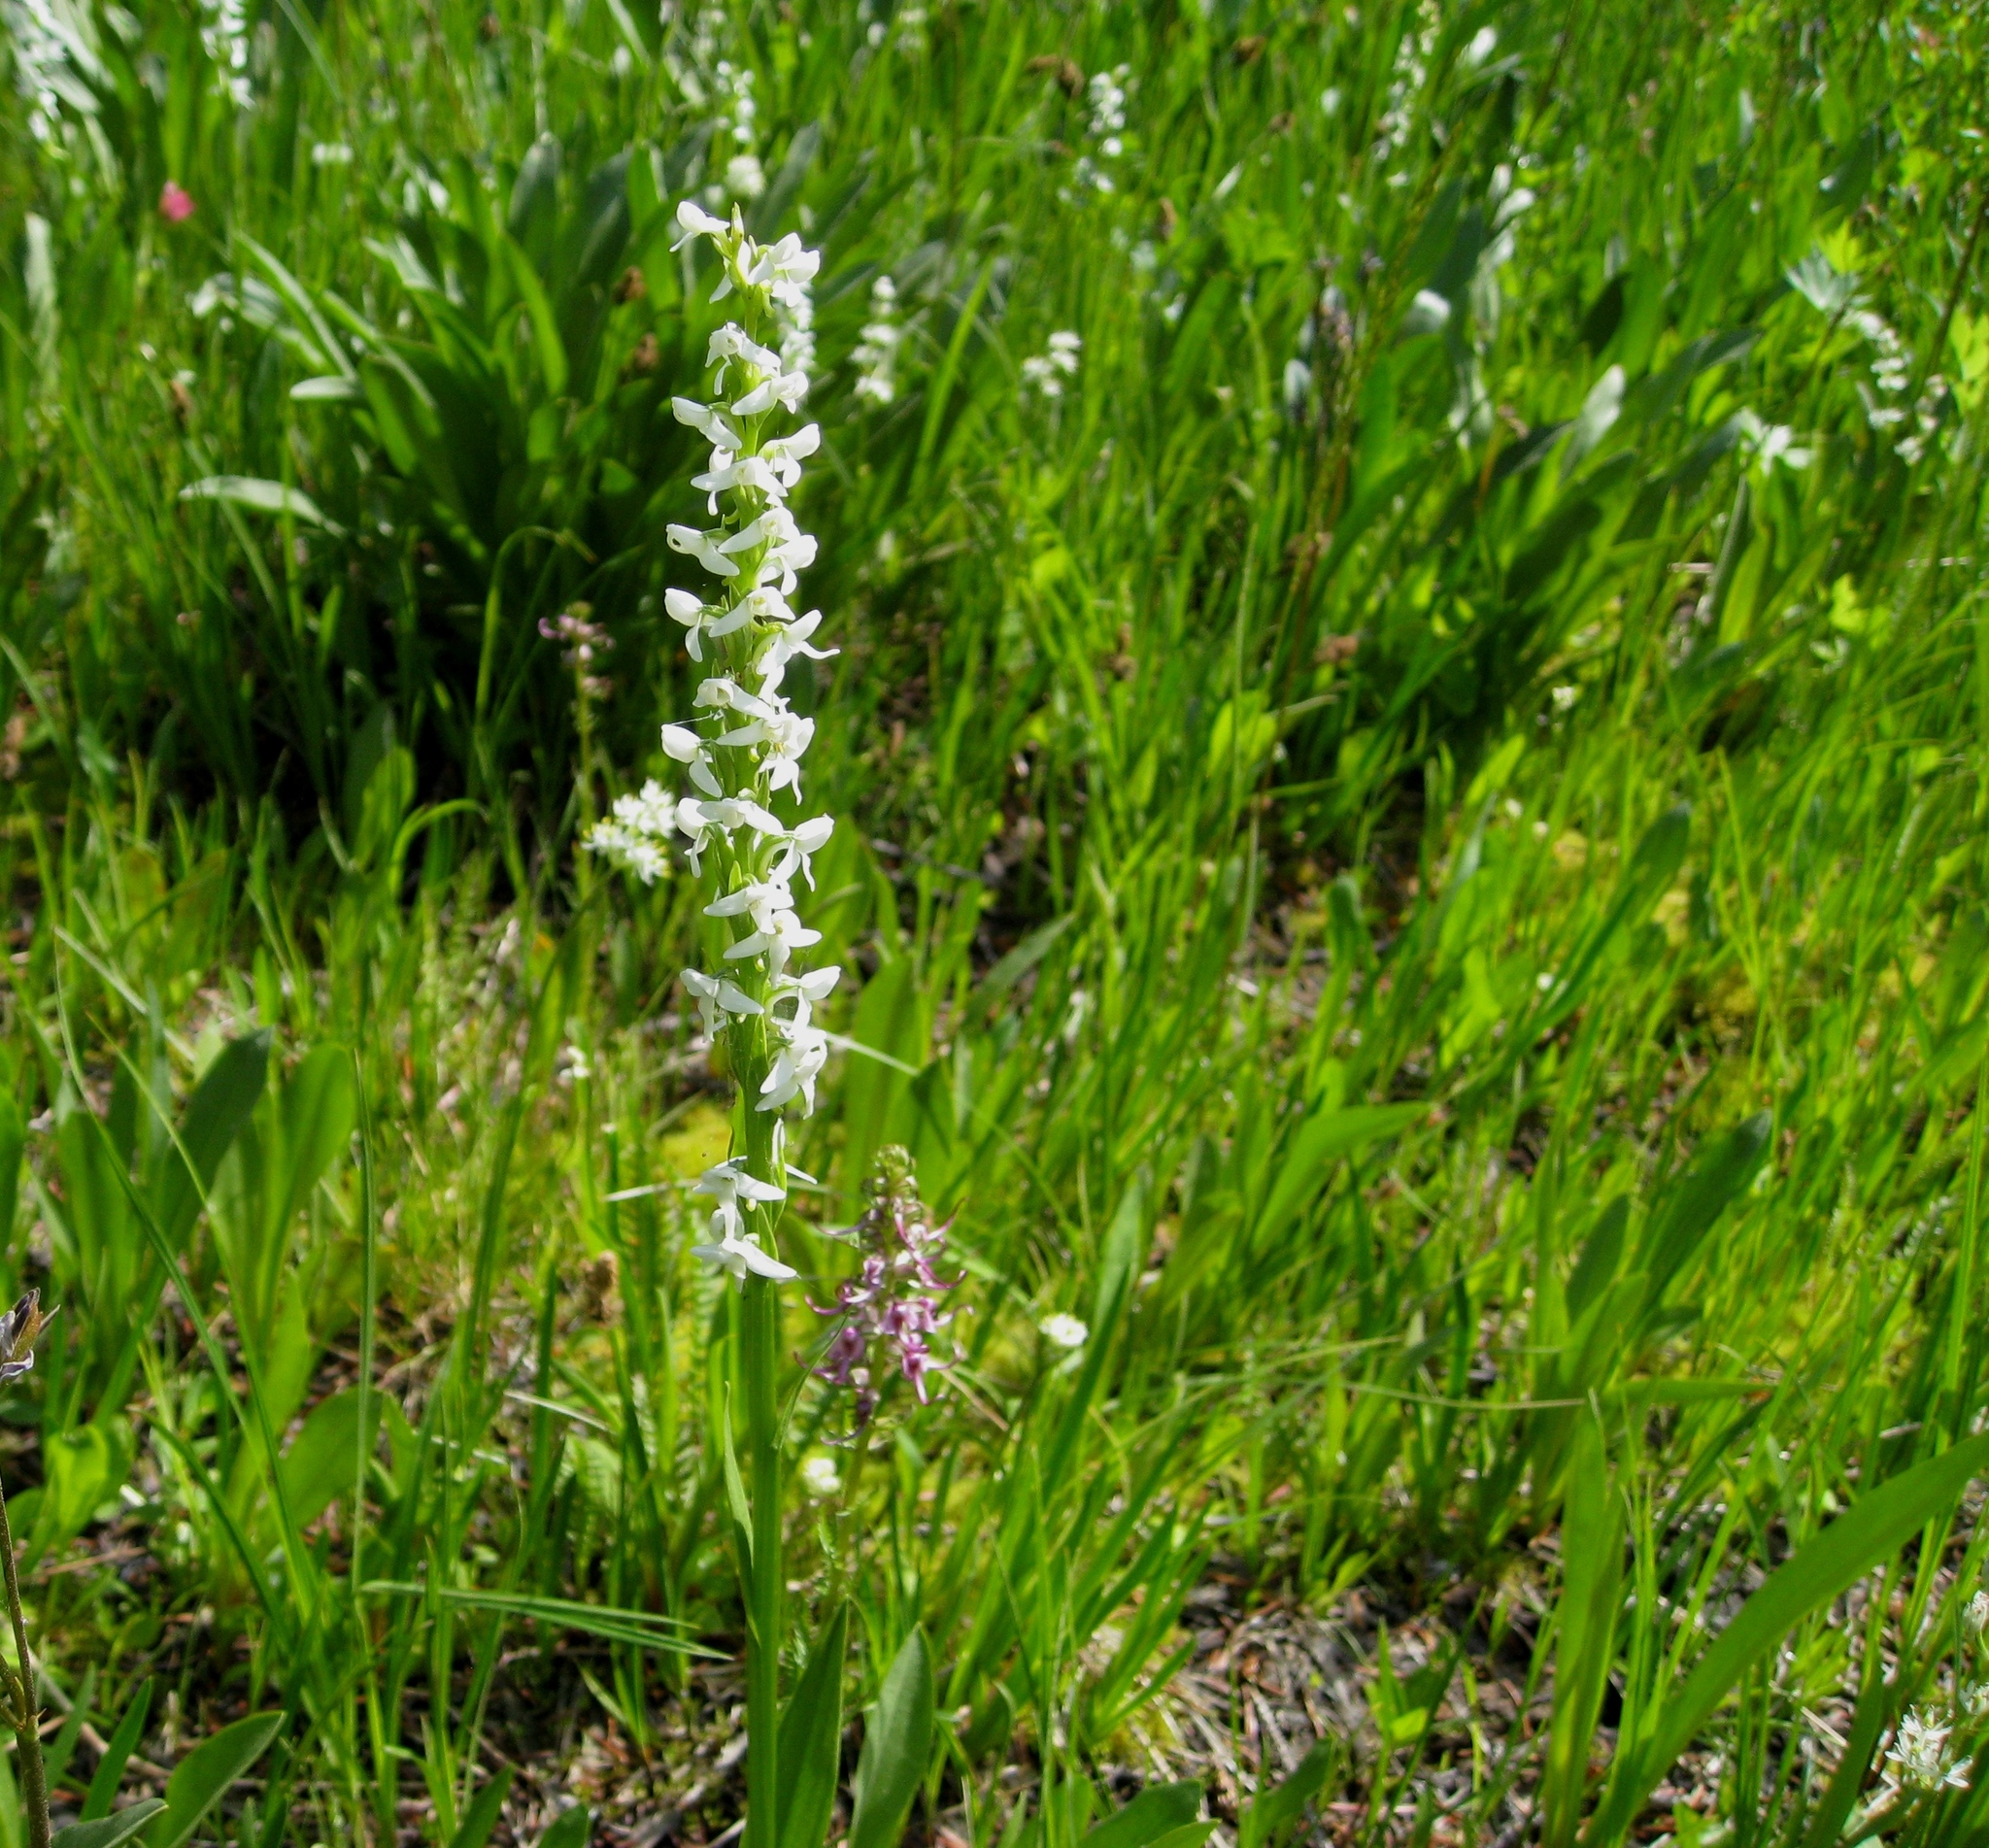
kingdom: Plantae
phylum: Tracheophyta
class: Liliopsida
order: Asparagales
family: Orchidaceae
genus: Platanthera
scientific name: Platanthera dilatata
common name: Bog candles
